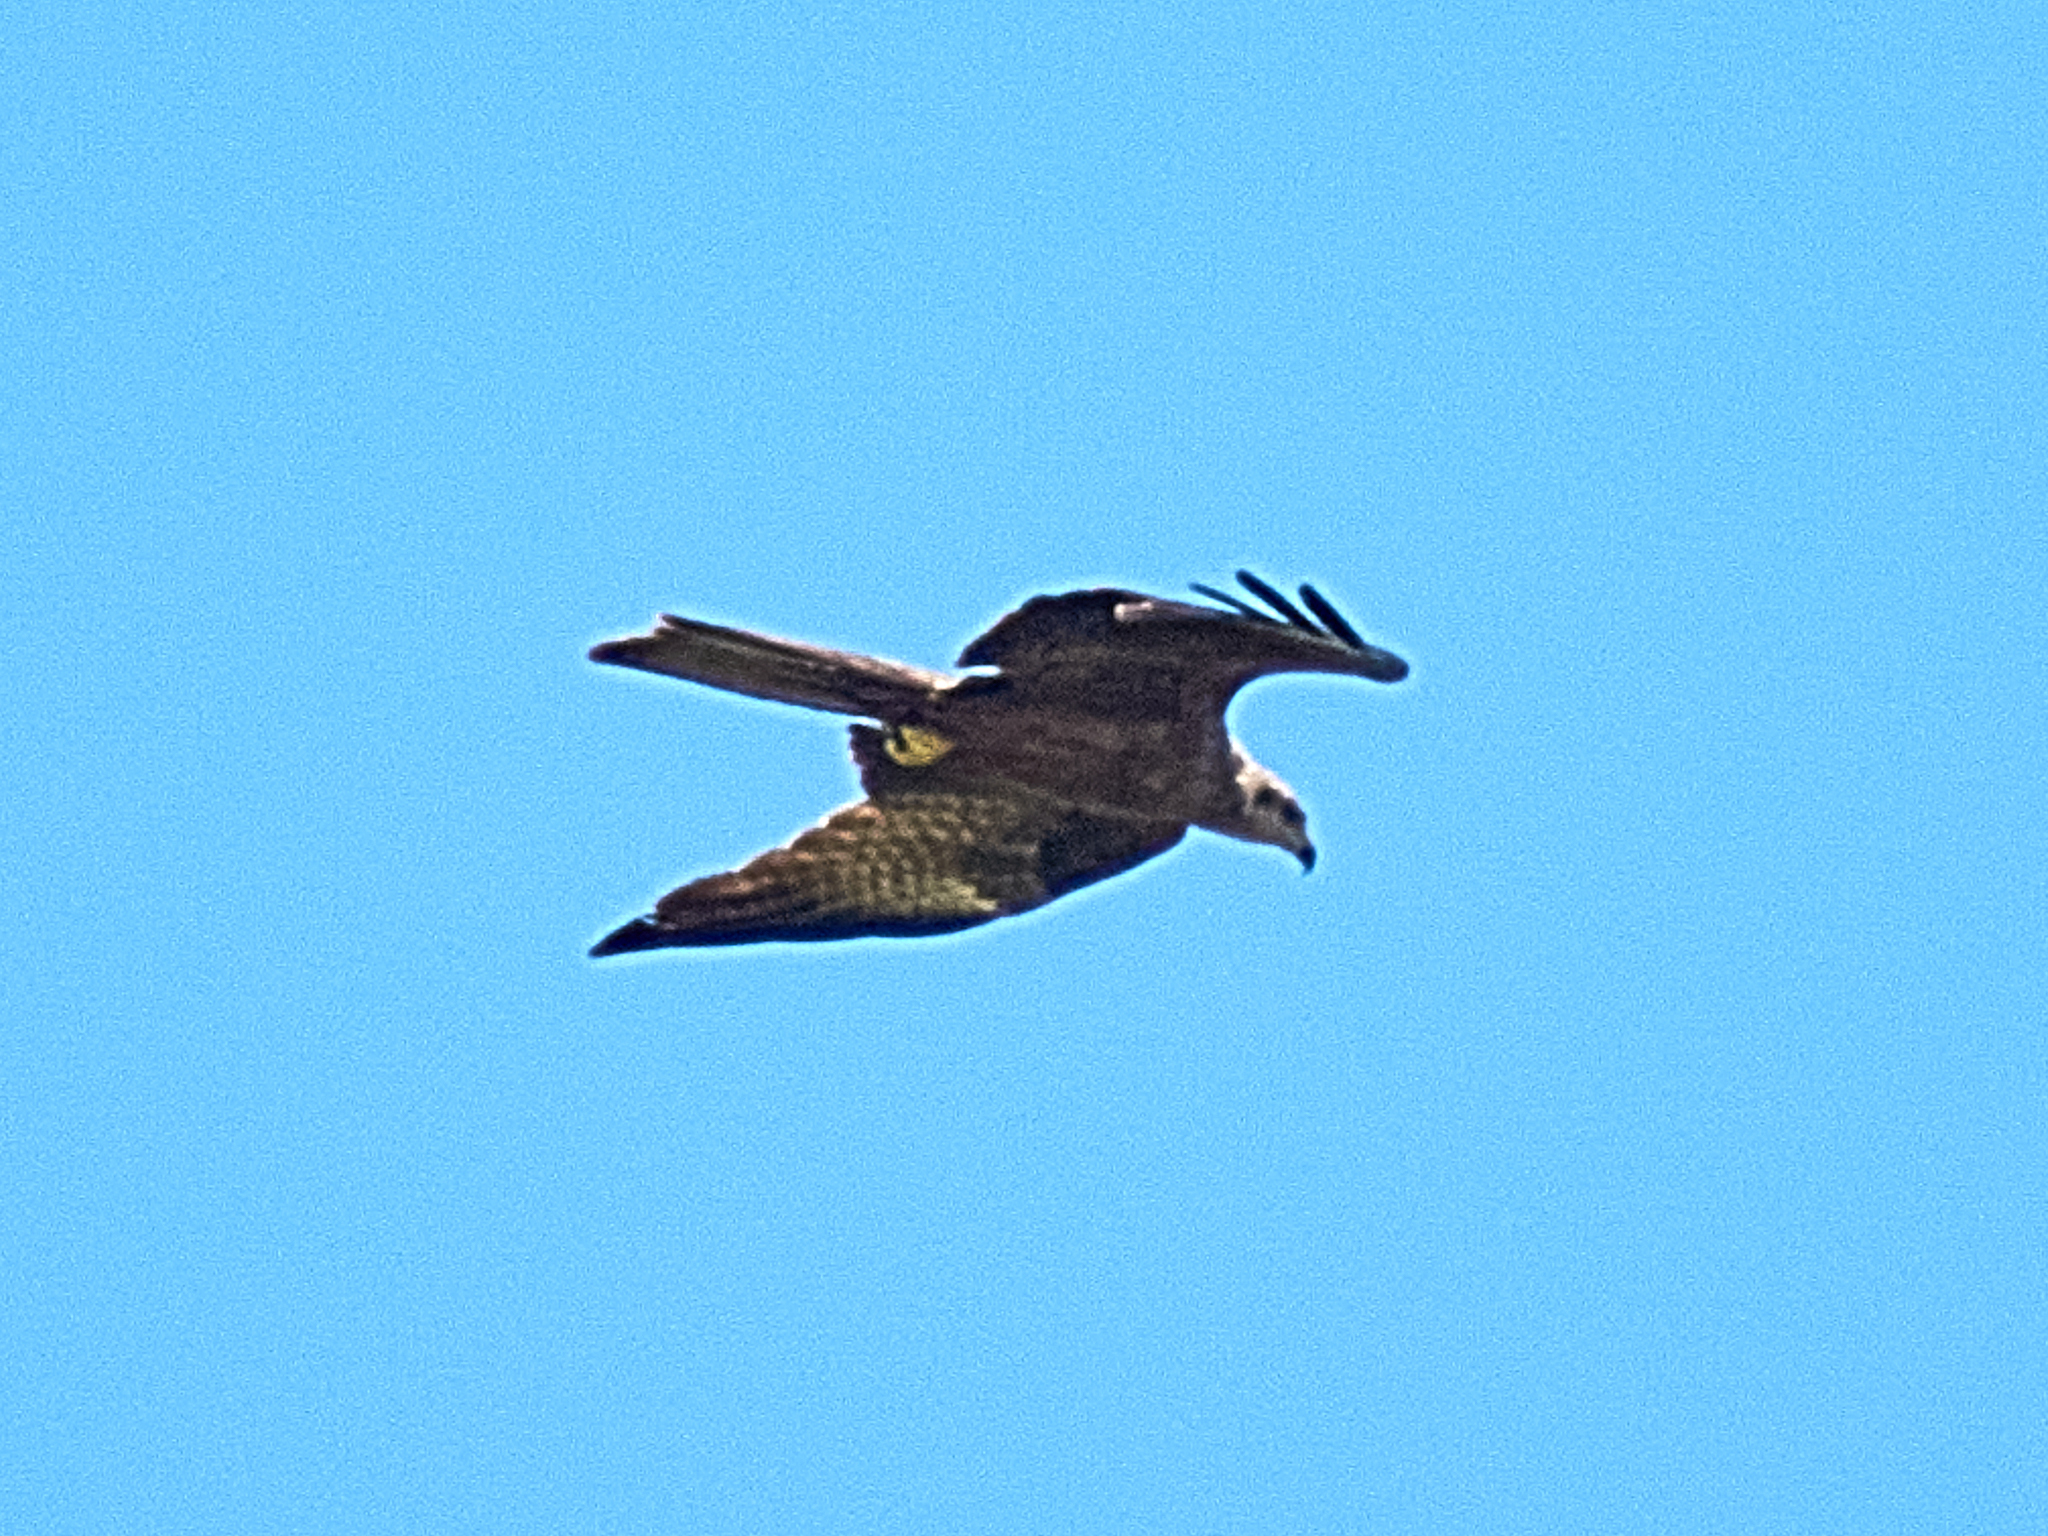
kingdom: Animalia
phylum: Chordata
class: Aves
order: Accipitriformes
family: Accipitridae
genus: Milvus
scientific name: Milvus migrans
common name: Black kite
